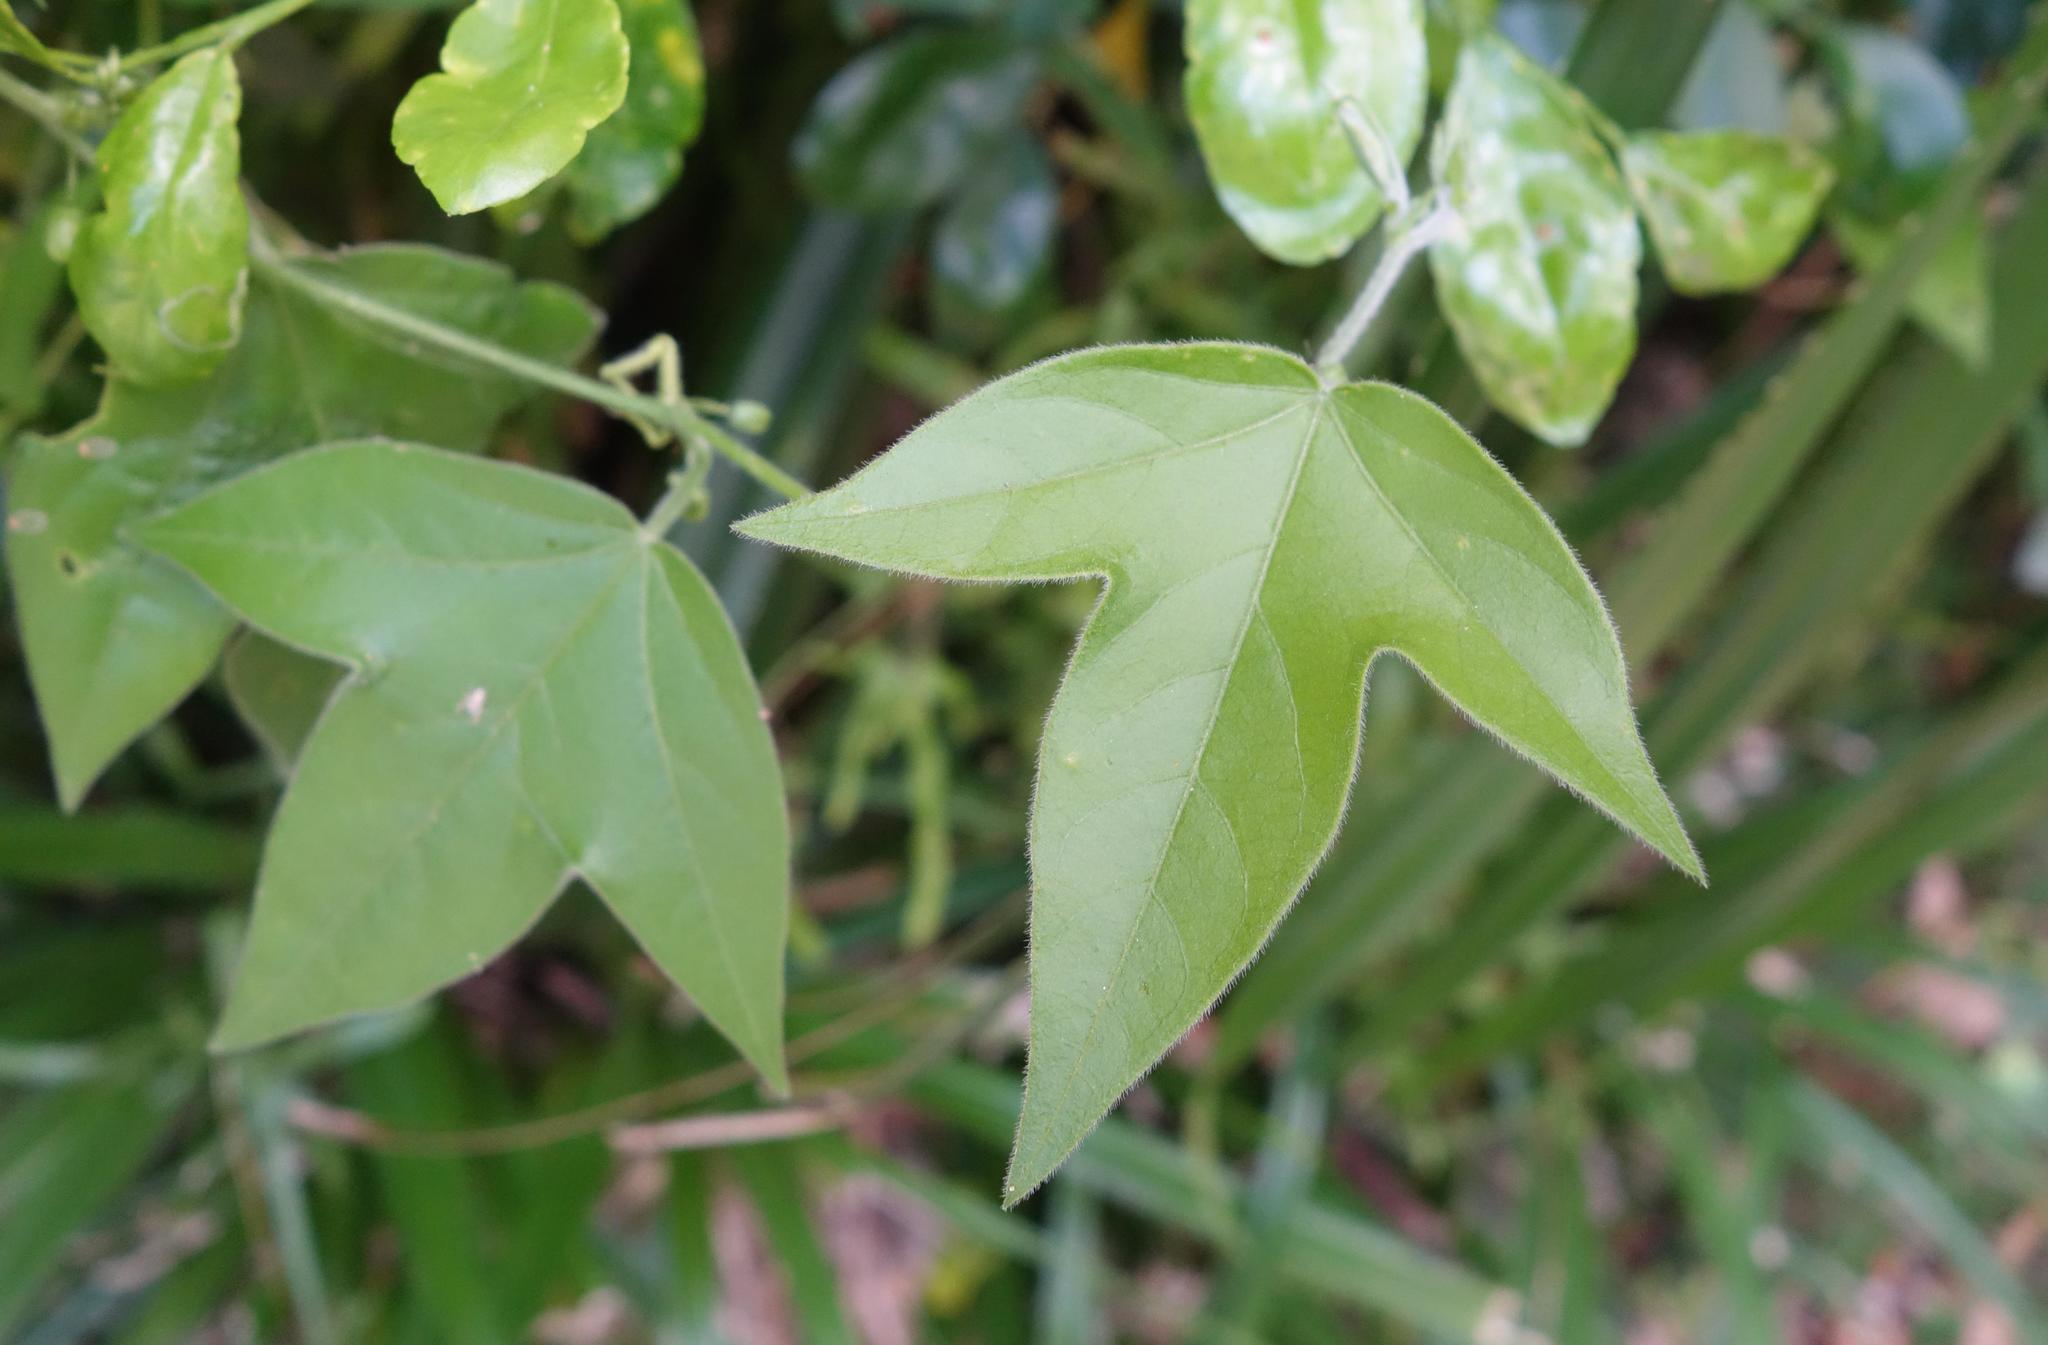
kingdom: Plantae
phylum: Tracheophyta
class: Magnoliopsida
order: Malpighiales
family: Passifloraceae
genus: Passiflora
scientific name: Passiflora suberosa
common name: Wild passionfruit
